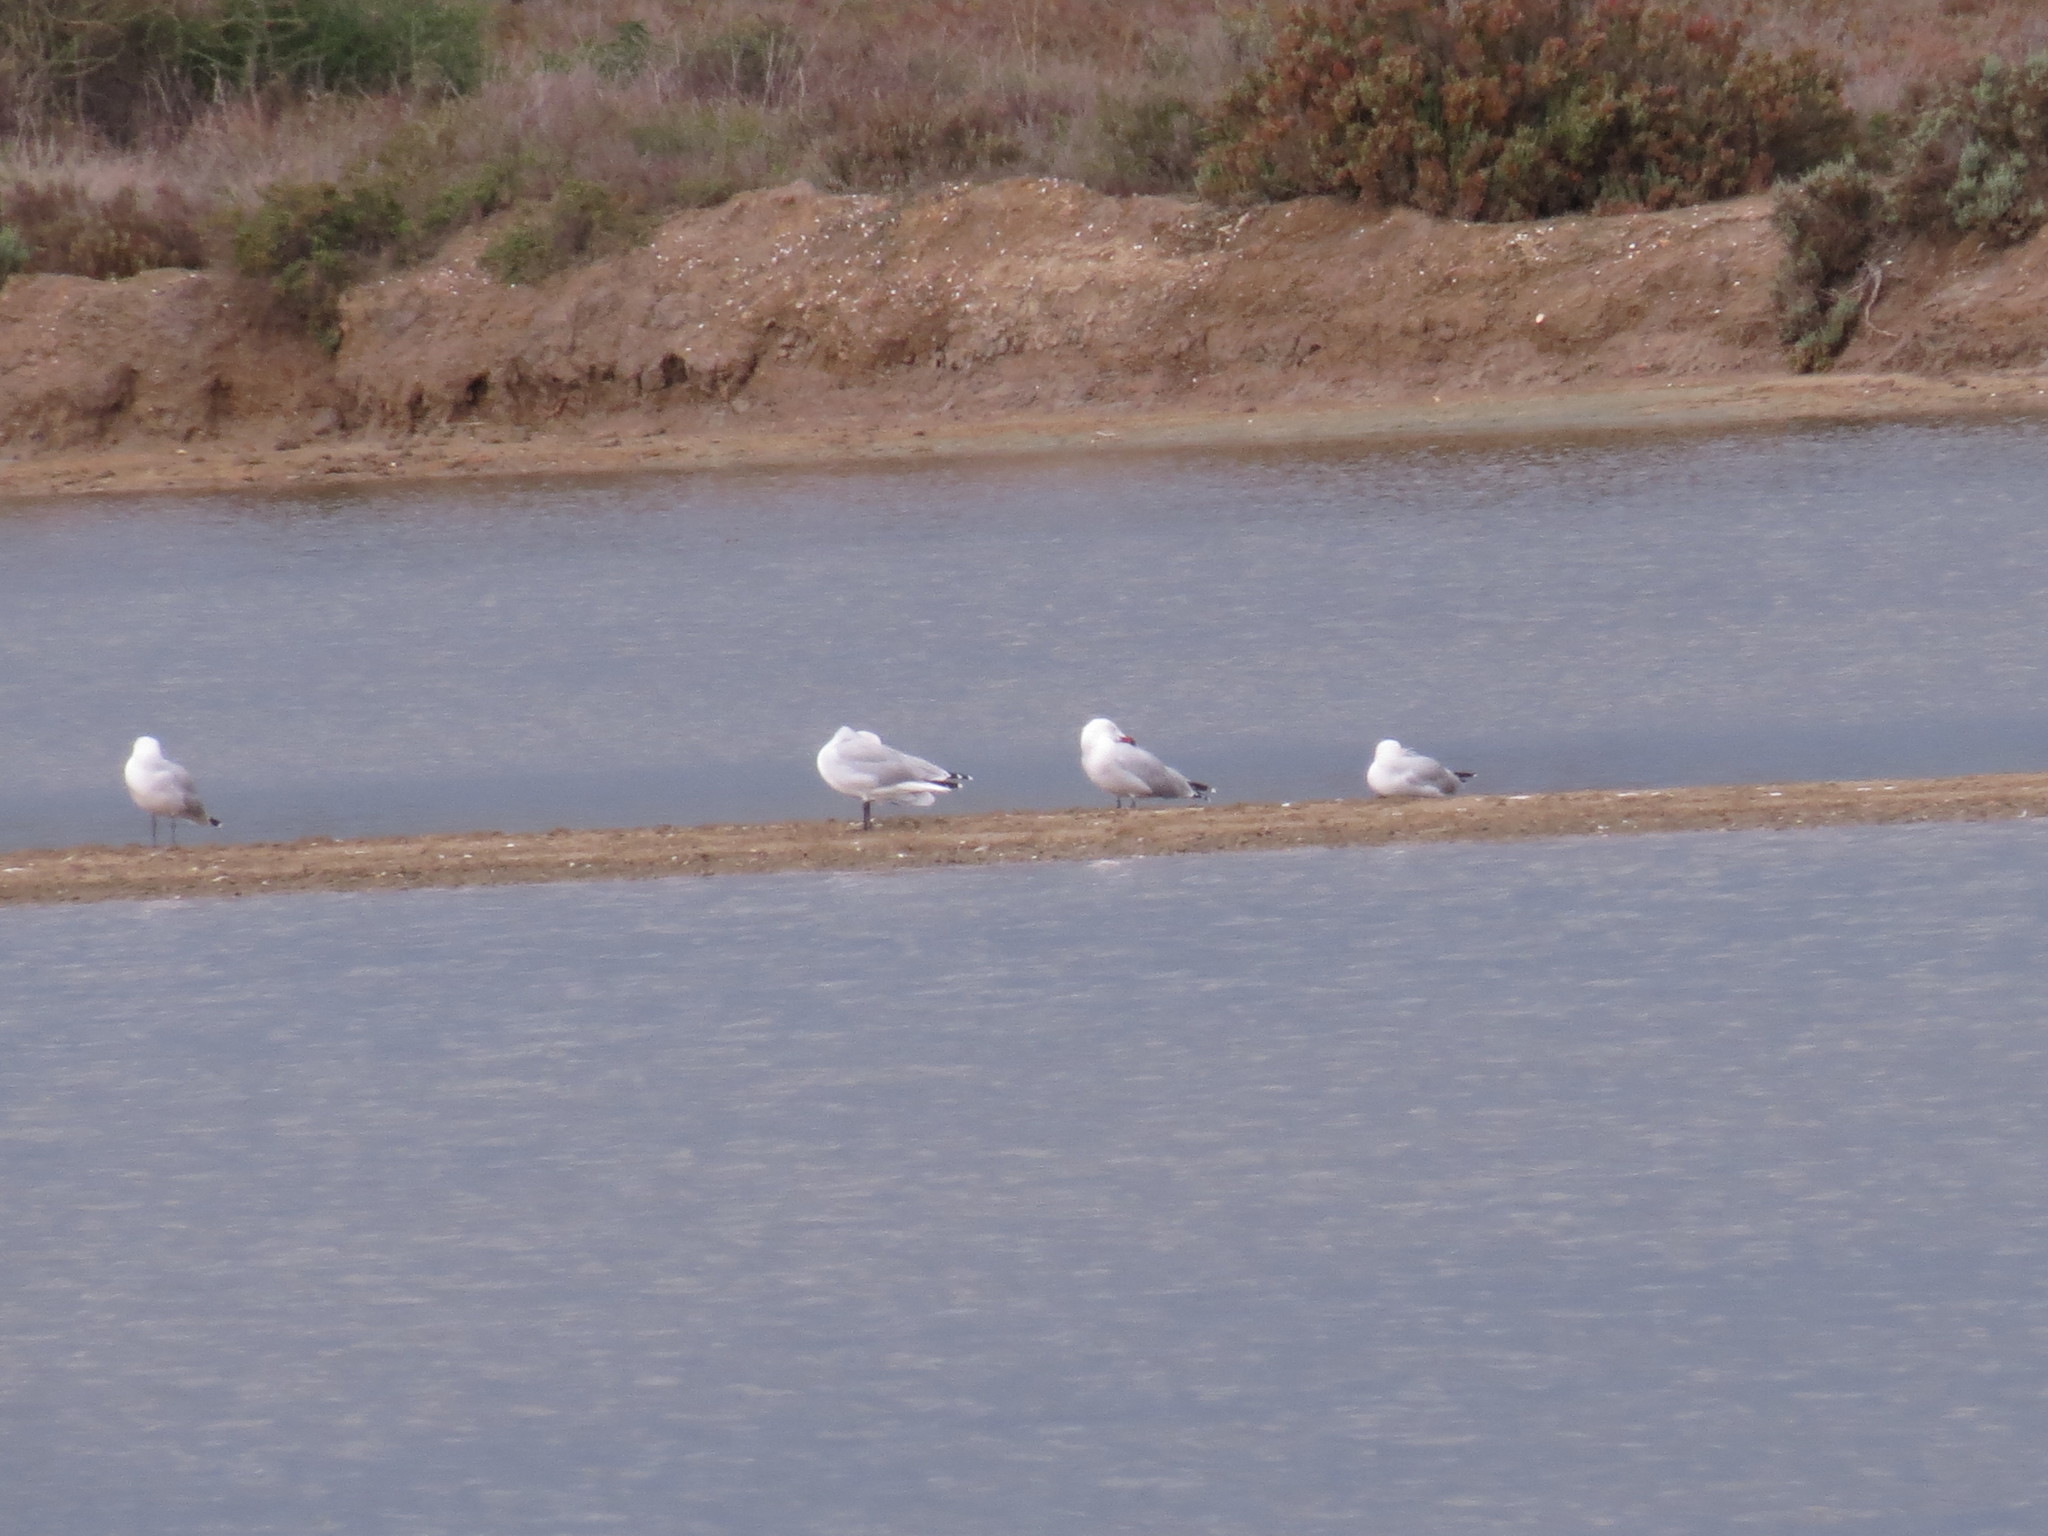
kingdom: Animalia
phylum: Chordata
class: Aves
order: Charadriiformes
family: Laridae
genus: Ichthyaetus
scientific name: Ichthyaetus audouinii
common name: Audouin's gull
